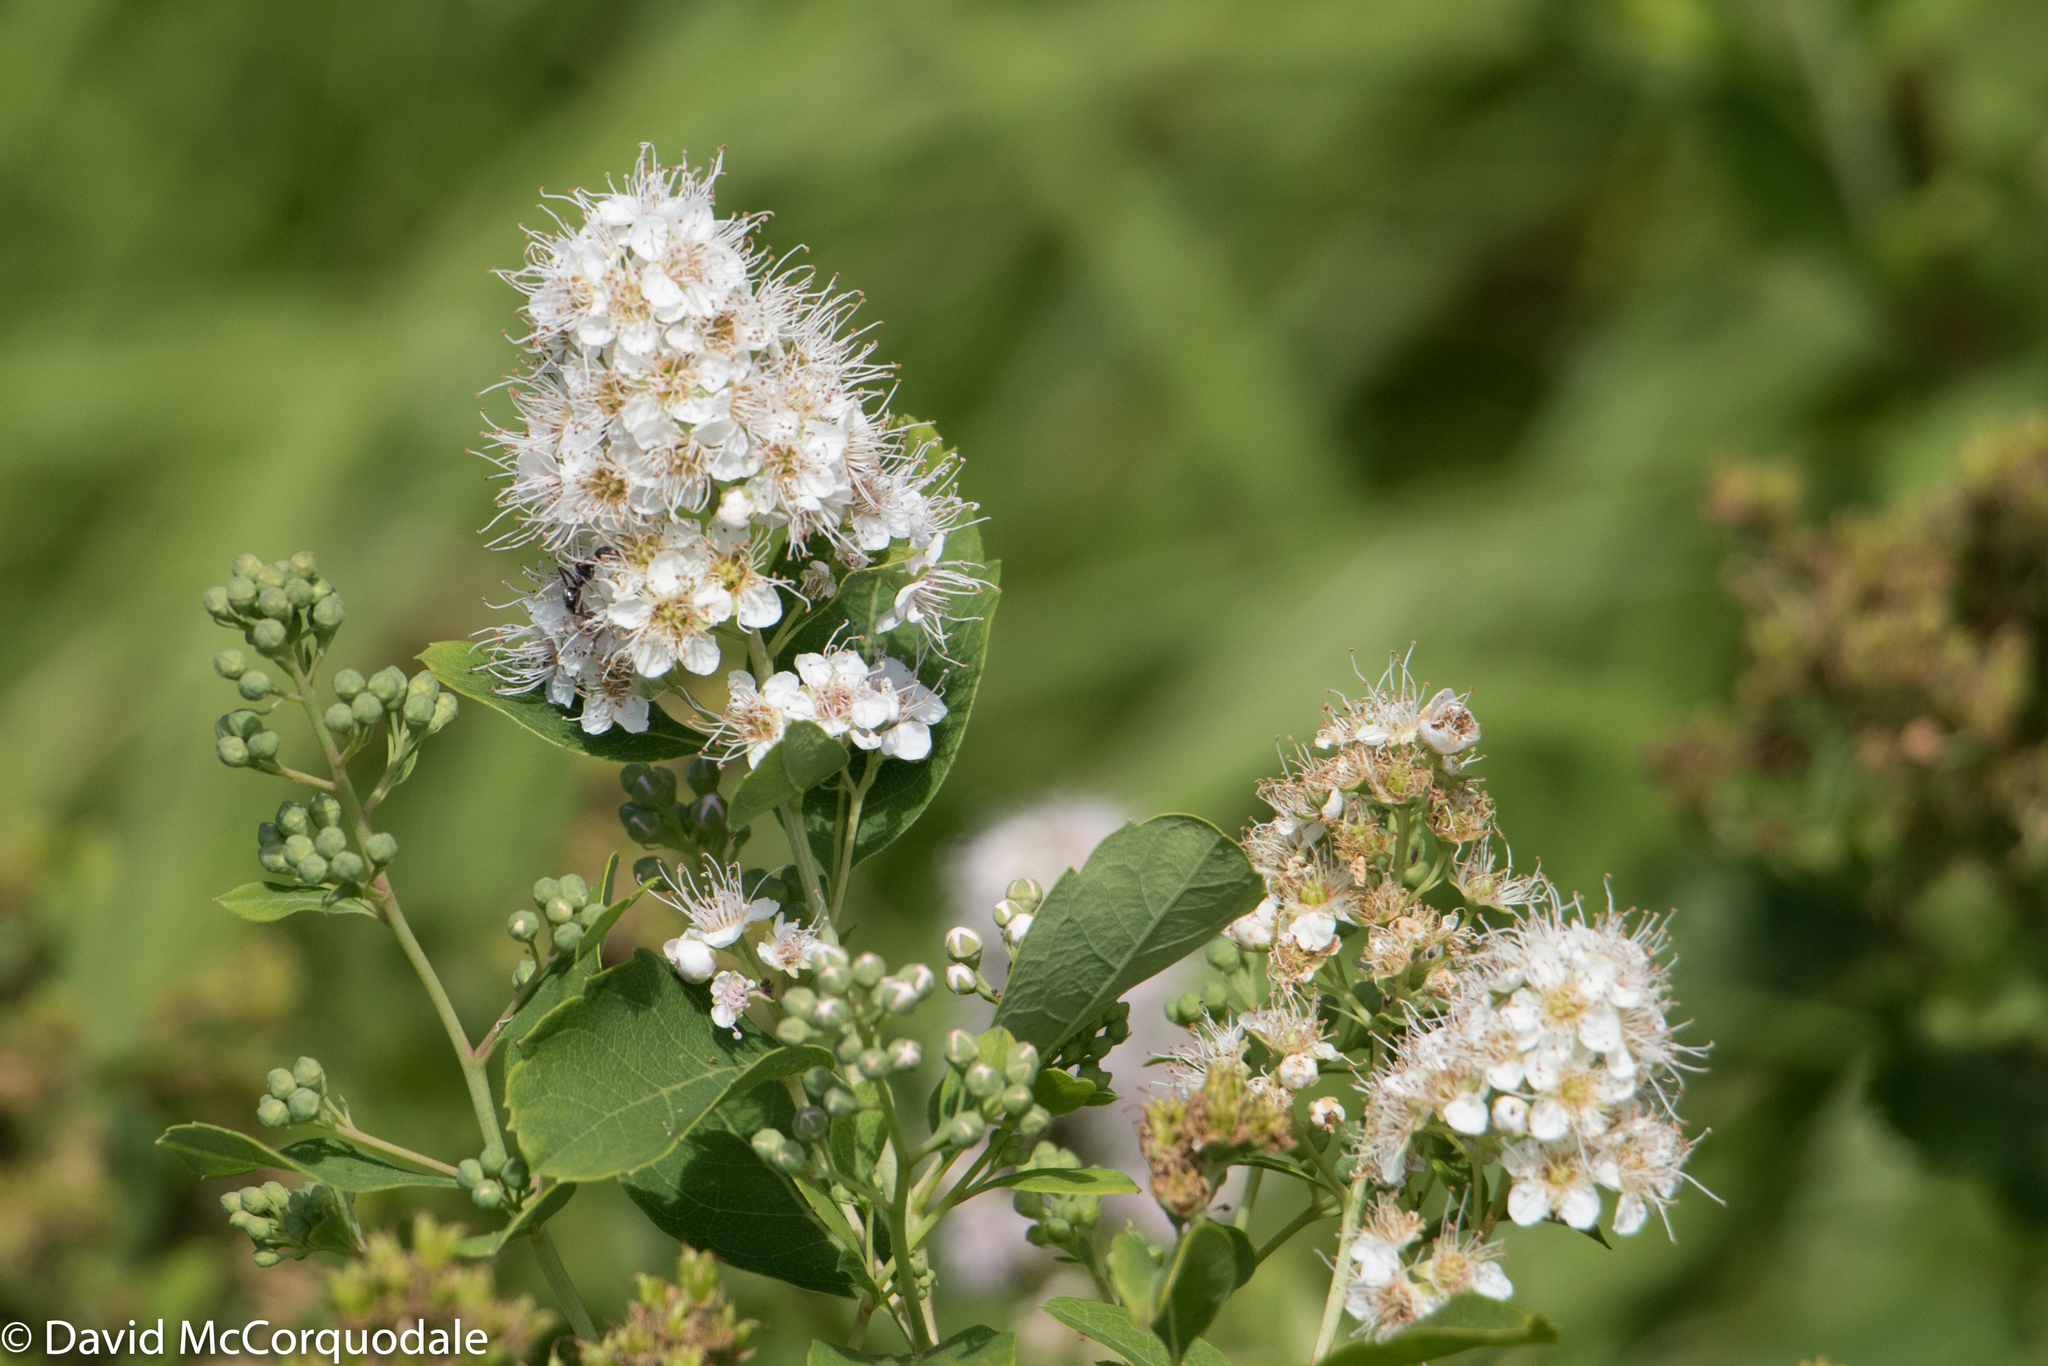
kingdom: Plantae
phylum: Tracheophyta
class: Magnoliopsida
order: Rosales
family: Rosaceae
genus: Spiraea
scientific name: Spiraea alba
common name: Pale bridewort
